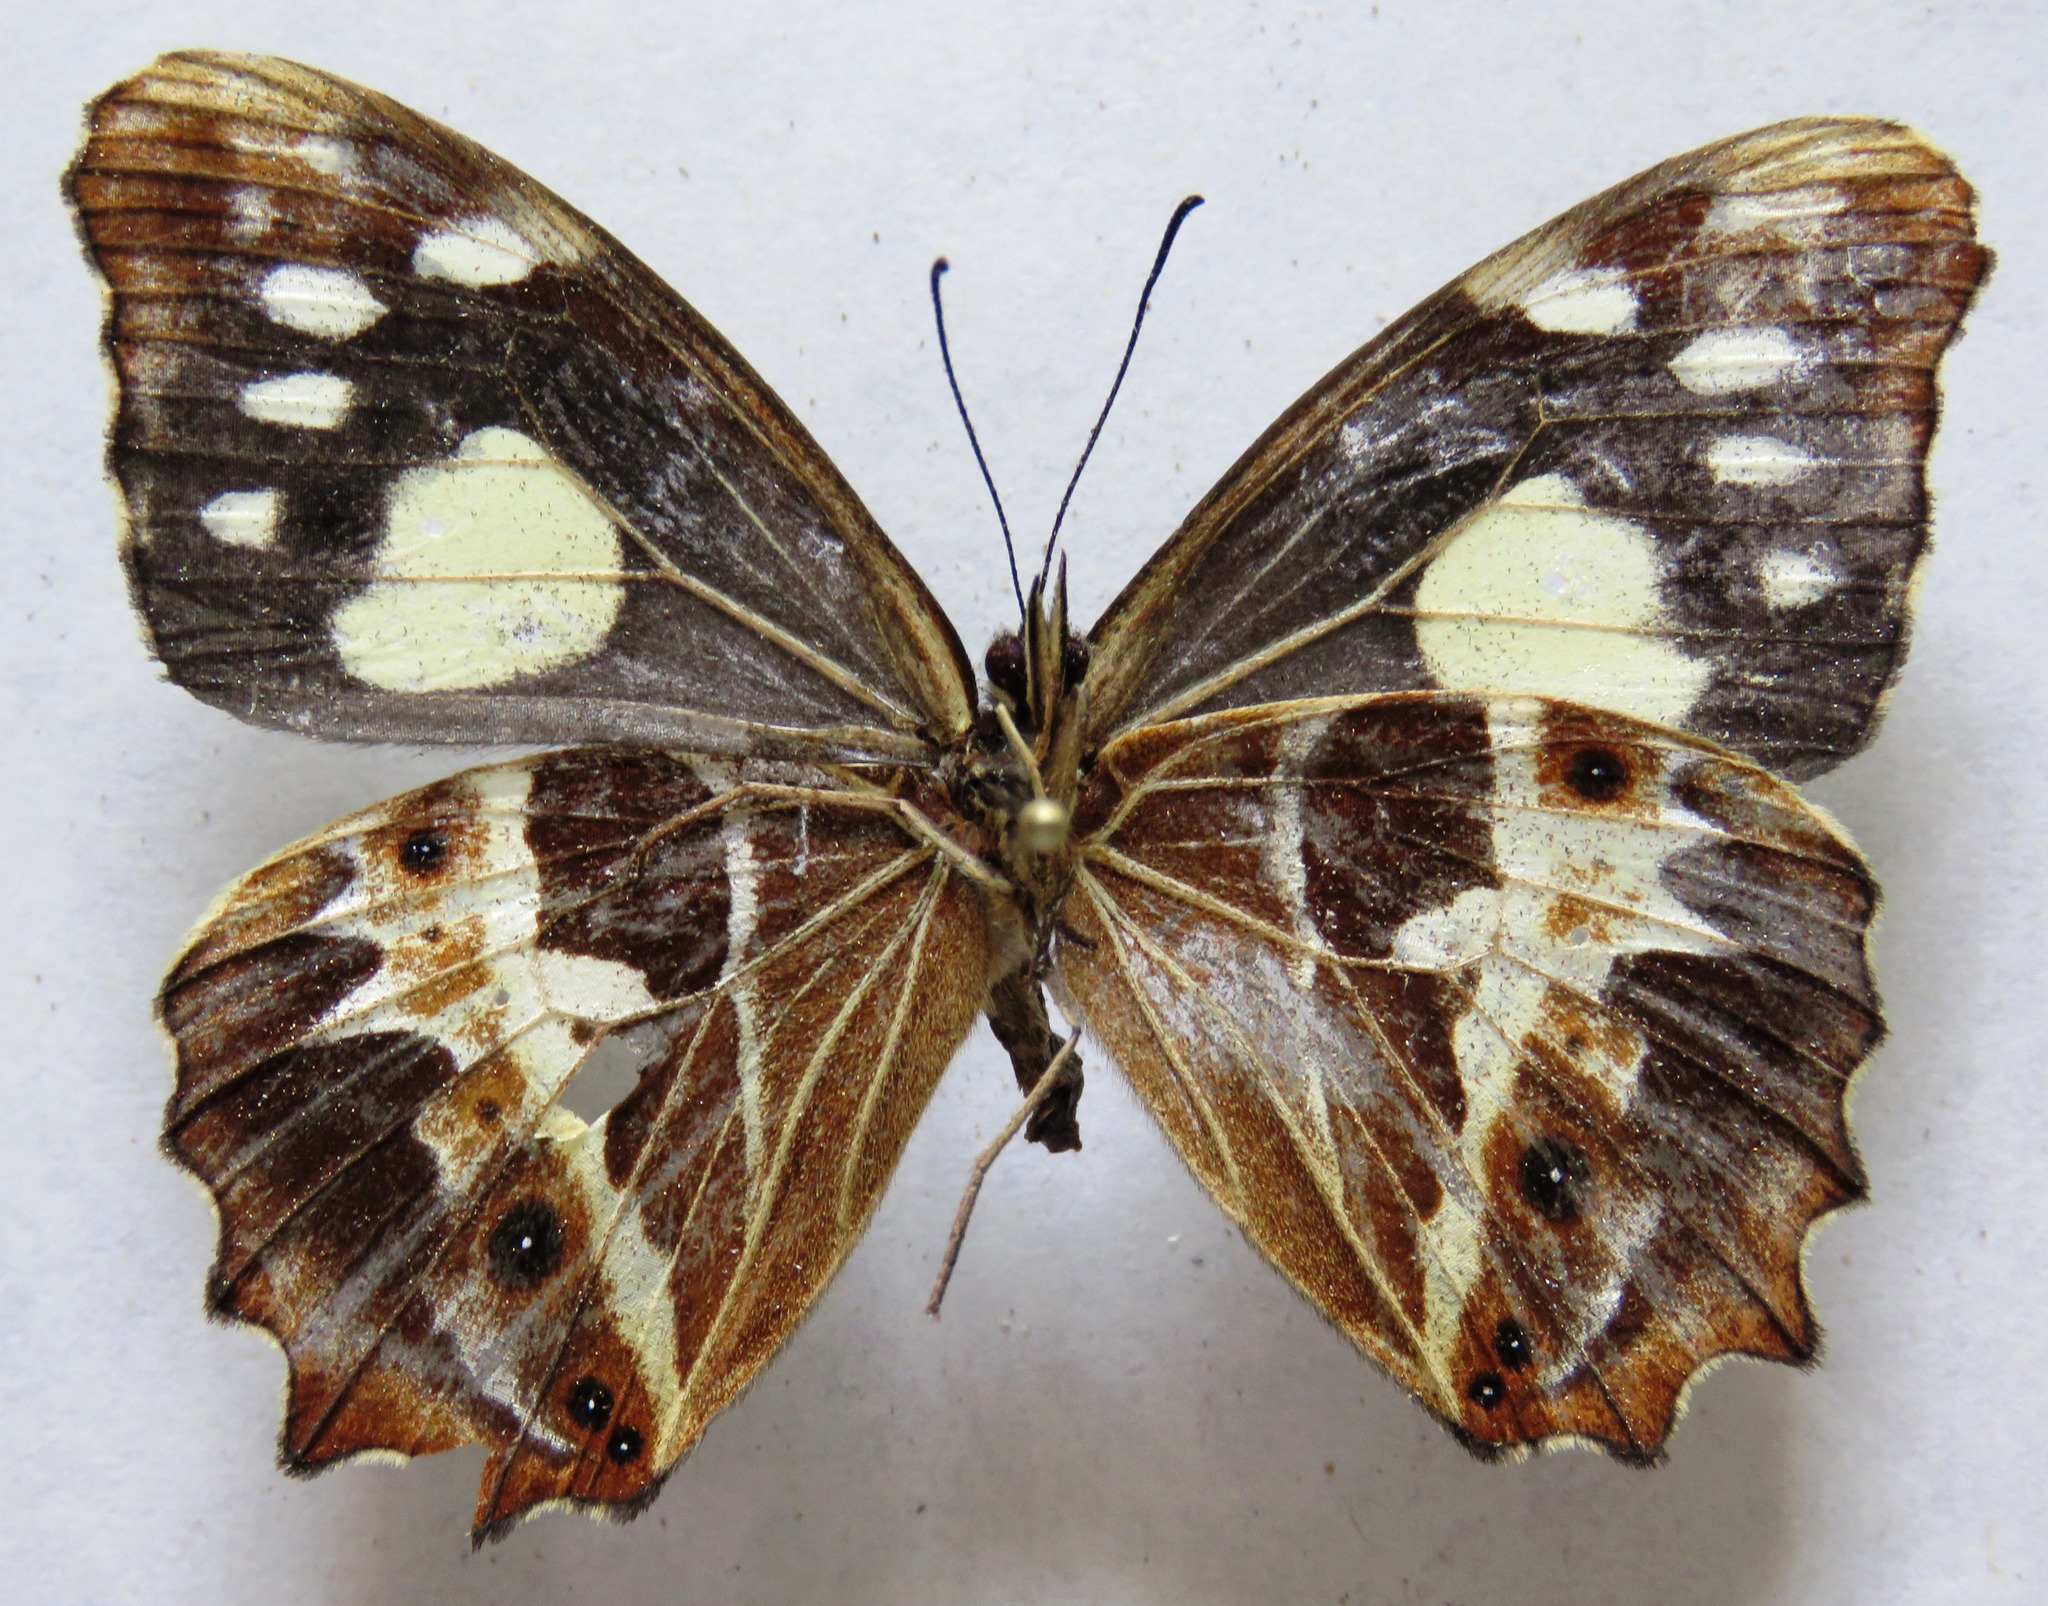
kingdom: Animalia
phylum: Arthropoda
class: Insecta
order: Lepidoptera
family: Nymphalidae
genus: Oxeoschistus
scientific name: Oxeoschistus tauropolis
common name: Starred oxeo
